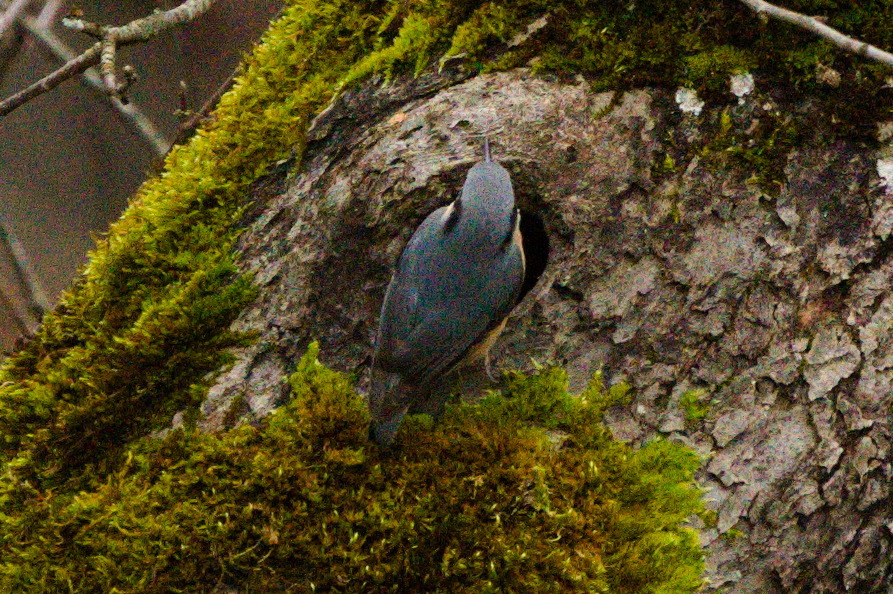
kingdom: Animalia
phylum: Chordata
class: Aves
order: Passeriformes
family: Sittidae
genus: Sitta
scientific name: Sitta europaea
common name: Eurasian nuthatch
